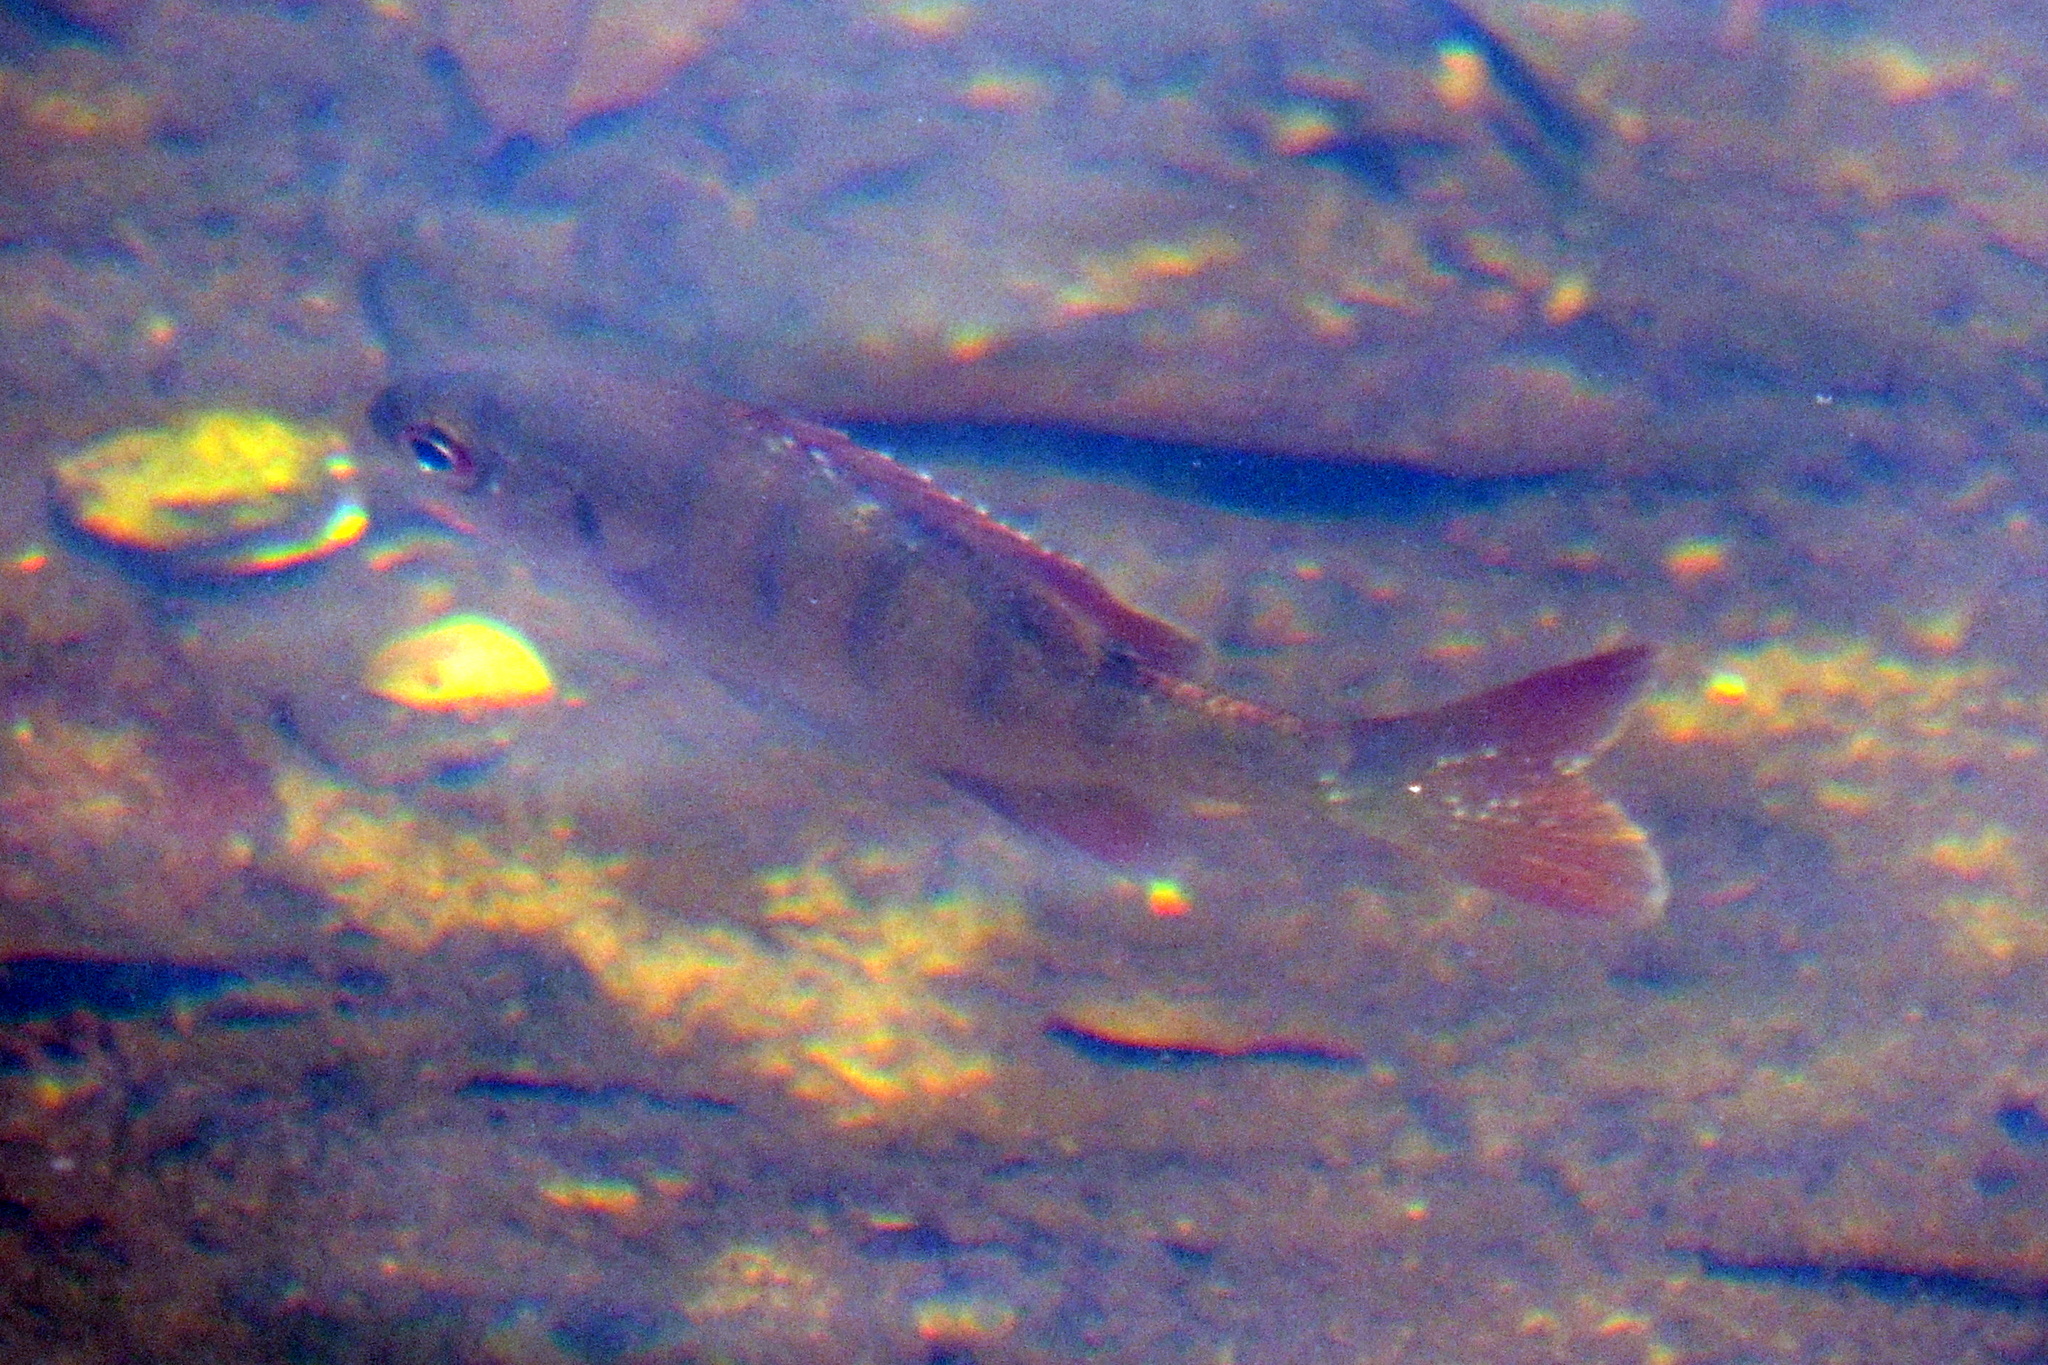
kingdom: Animalia
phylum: Chordata
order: Perciformes
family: Centrarchidae
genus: Lepomis
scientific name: Lepomis macrochirus
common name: Bluegill
